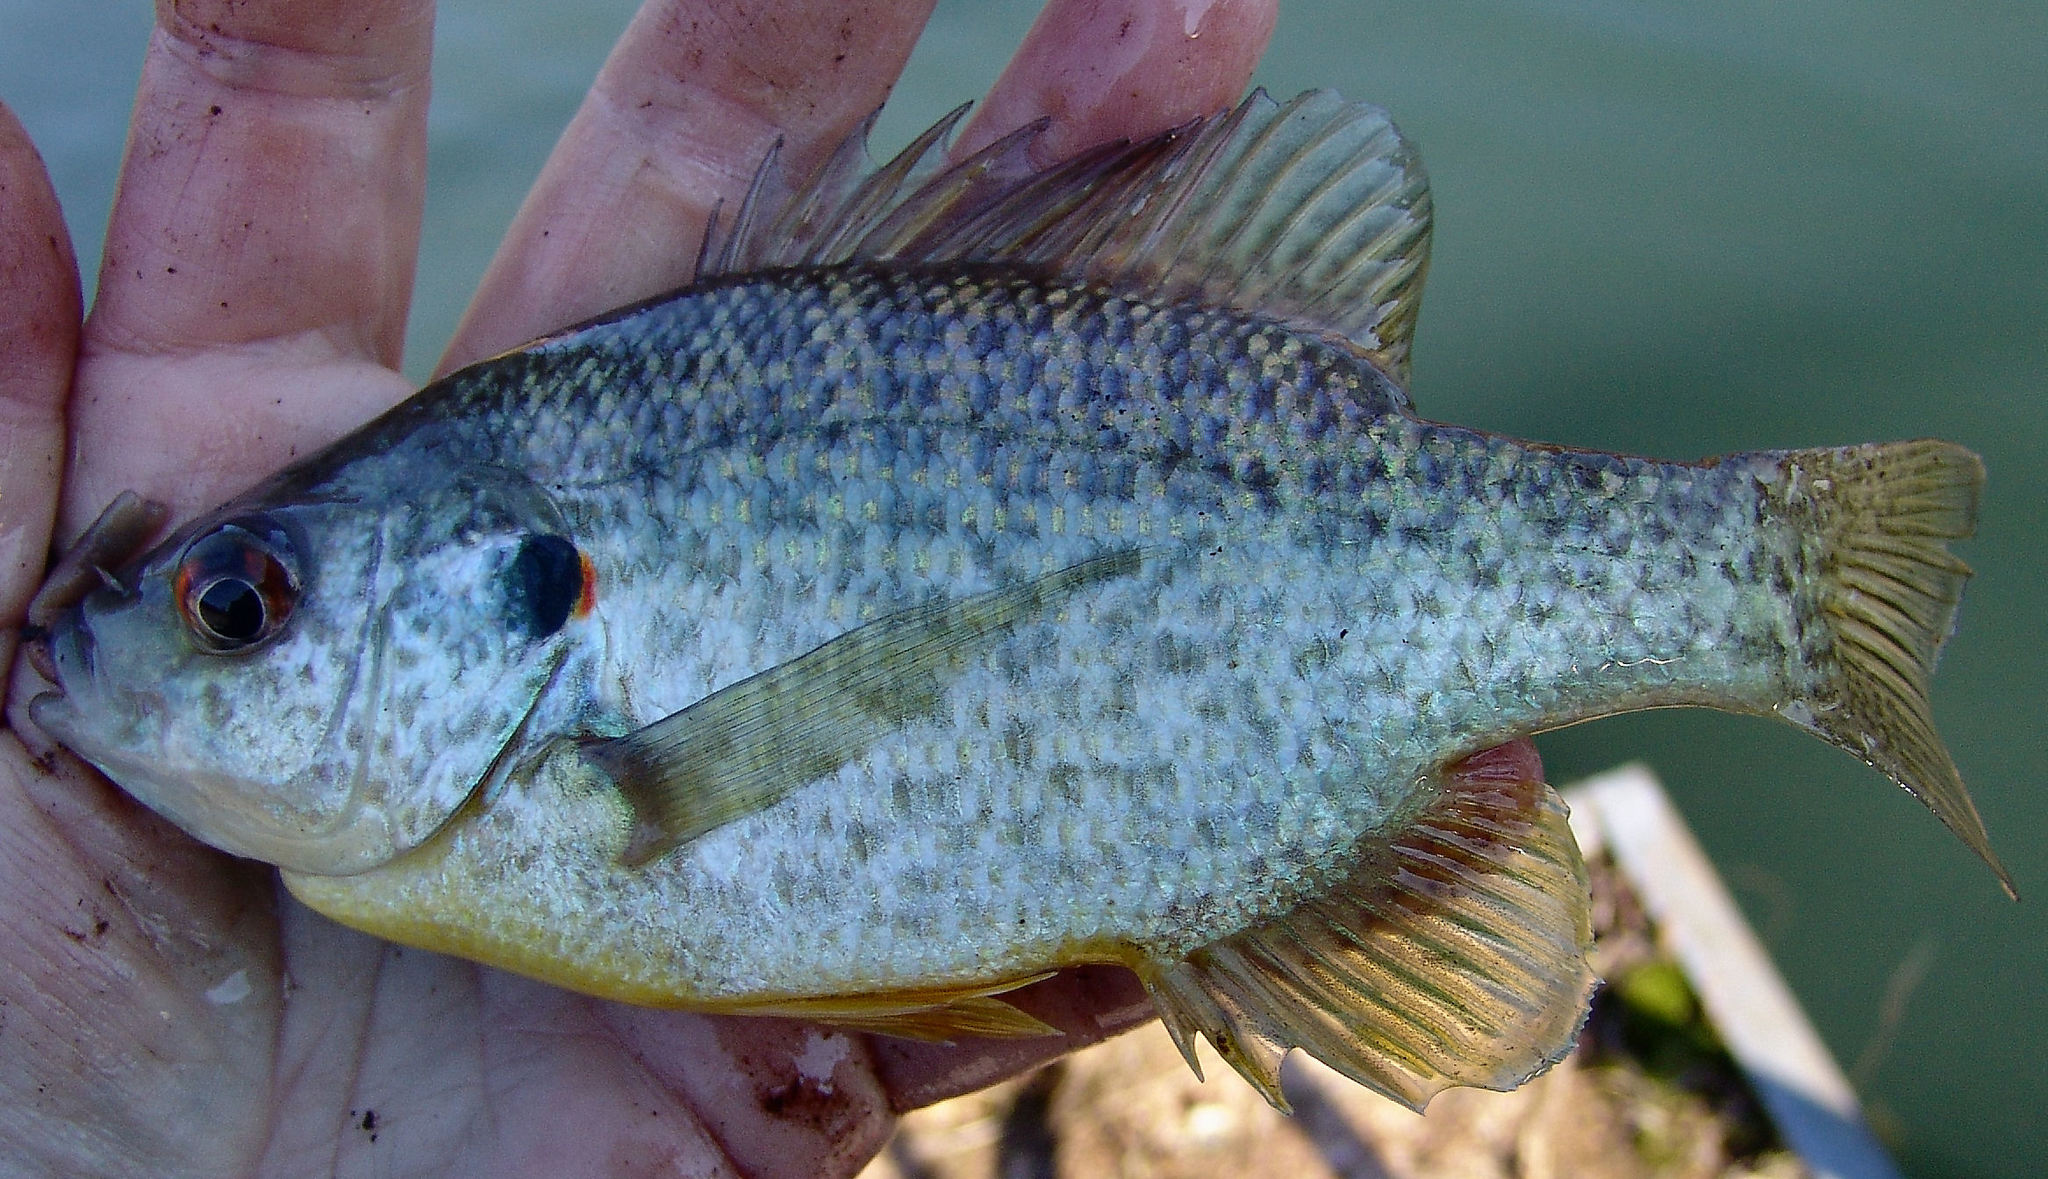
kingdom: Animalia
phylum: Chordata
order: Perciformes
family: Centrarchidae
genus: Lepomis
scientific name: Lepomis microlophus
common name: Redear sunfish
